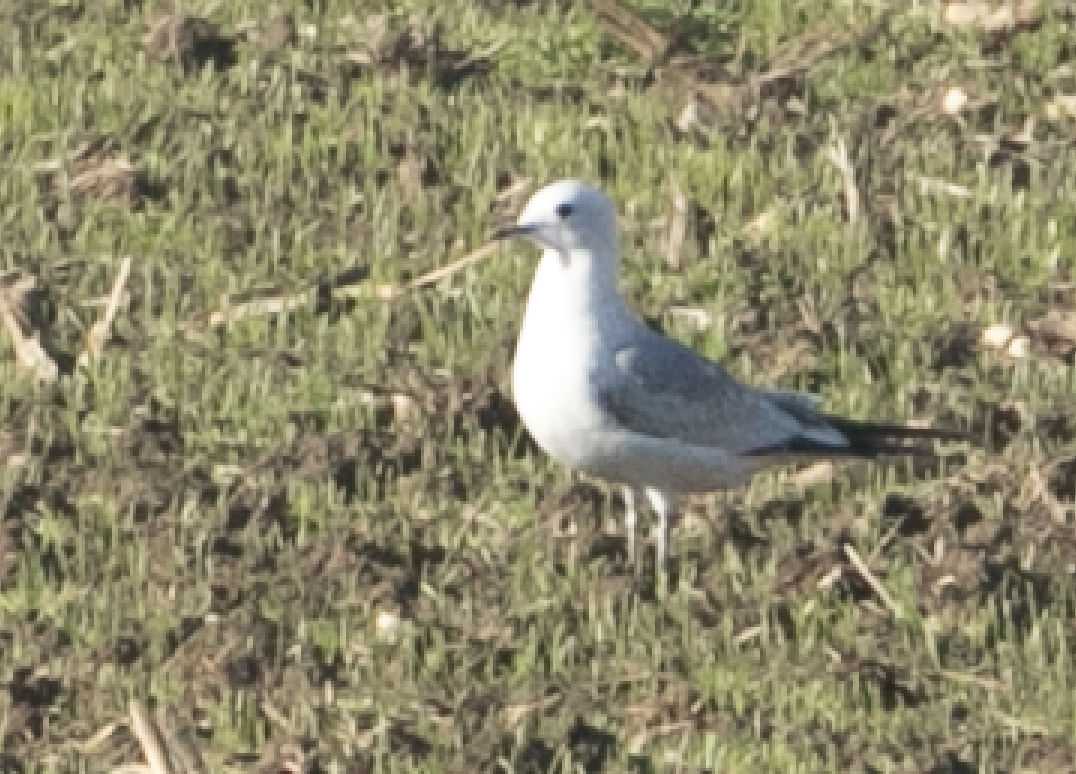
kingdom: Animalia
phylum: Chordata
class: Aves
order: Charadriiformes
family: Laridae
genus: Larus
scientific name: Larus canus
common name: Mew gull
